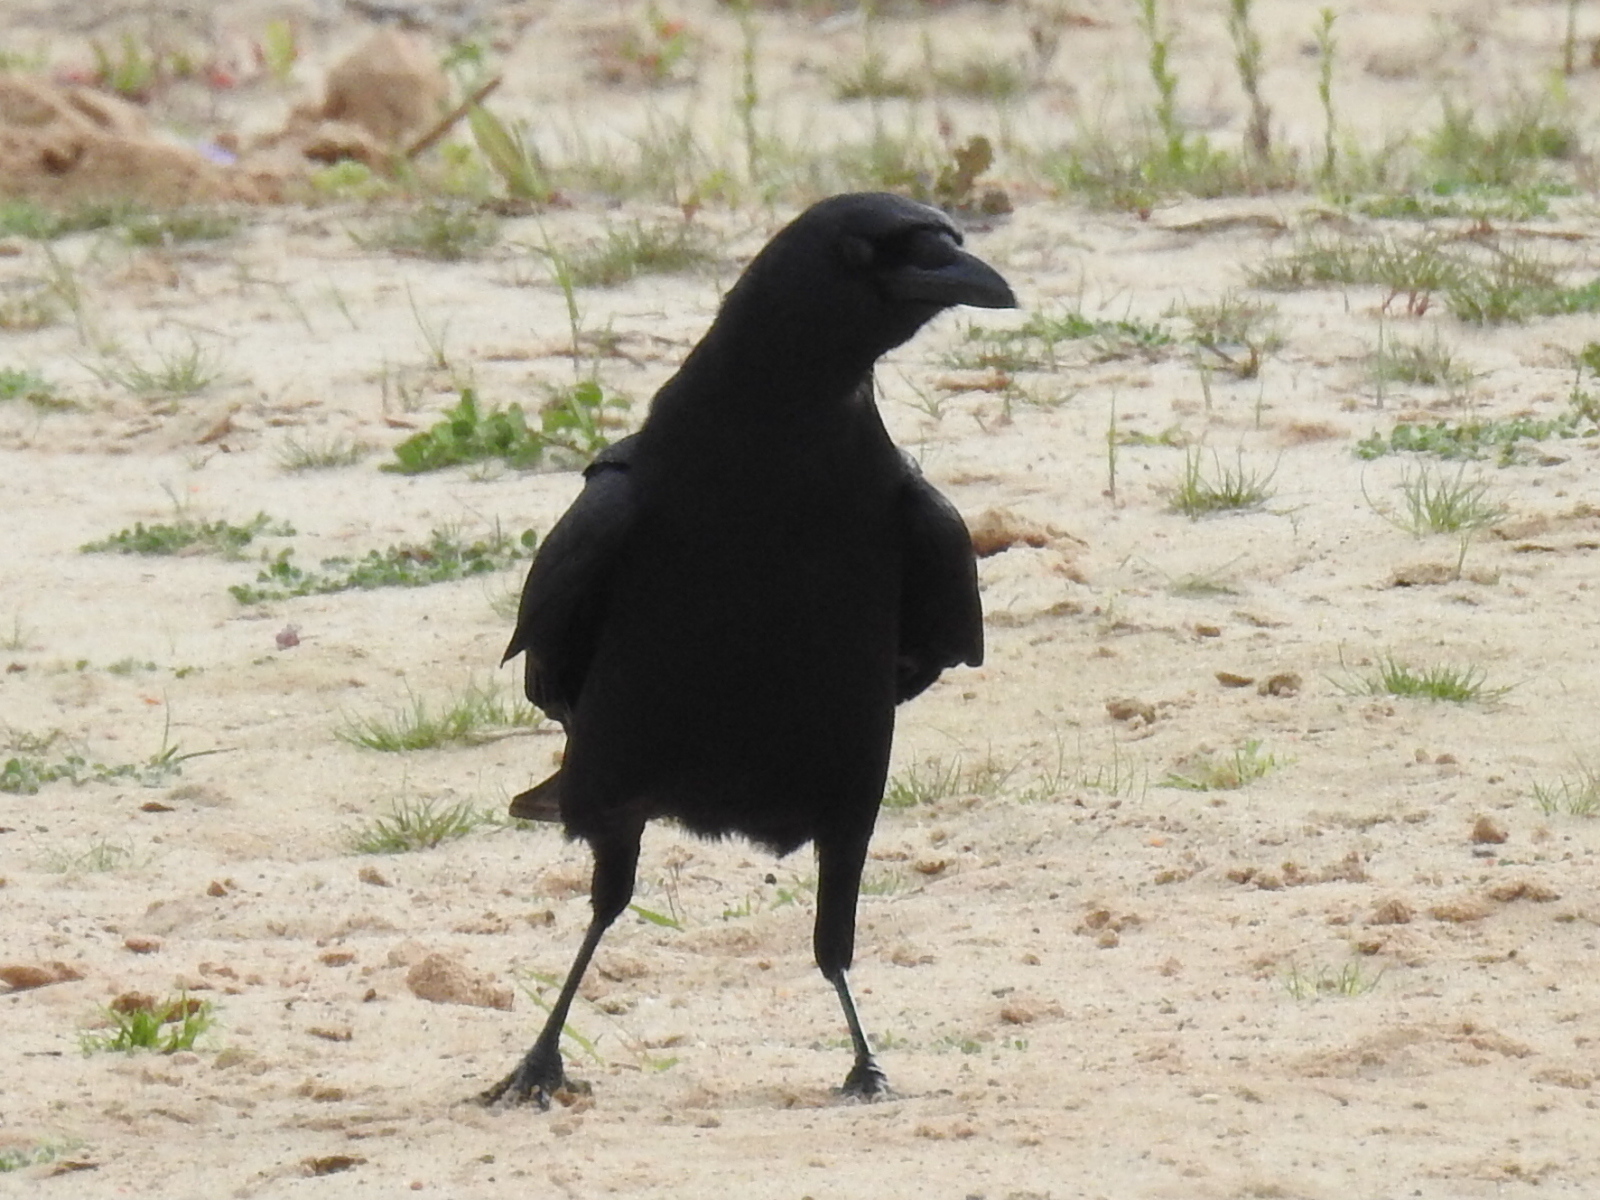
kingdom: Animalia
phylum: Chordata
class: Aves
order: Passeriformes
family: Corvidae
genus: Corvus
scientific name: Corvus brachyrhynchos
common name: American crow
